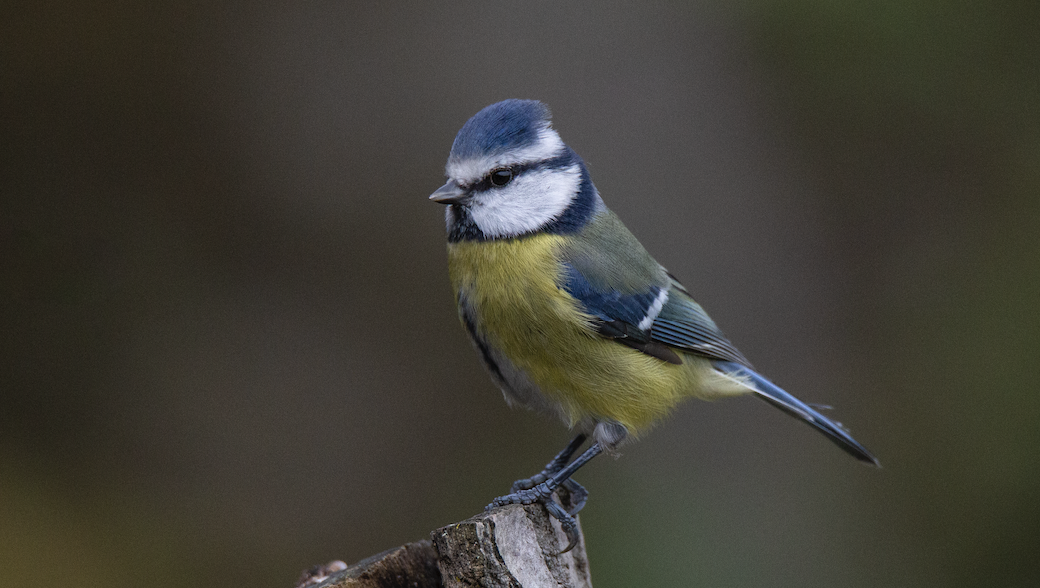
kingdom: Animalia
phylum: Chordata
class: Aves
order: Passeriformes
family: Paridae
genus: Cyanistes
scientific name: Cyanistes caeruleus
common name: Eurasian blue tit
